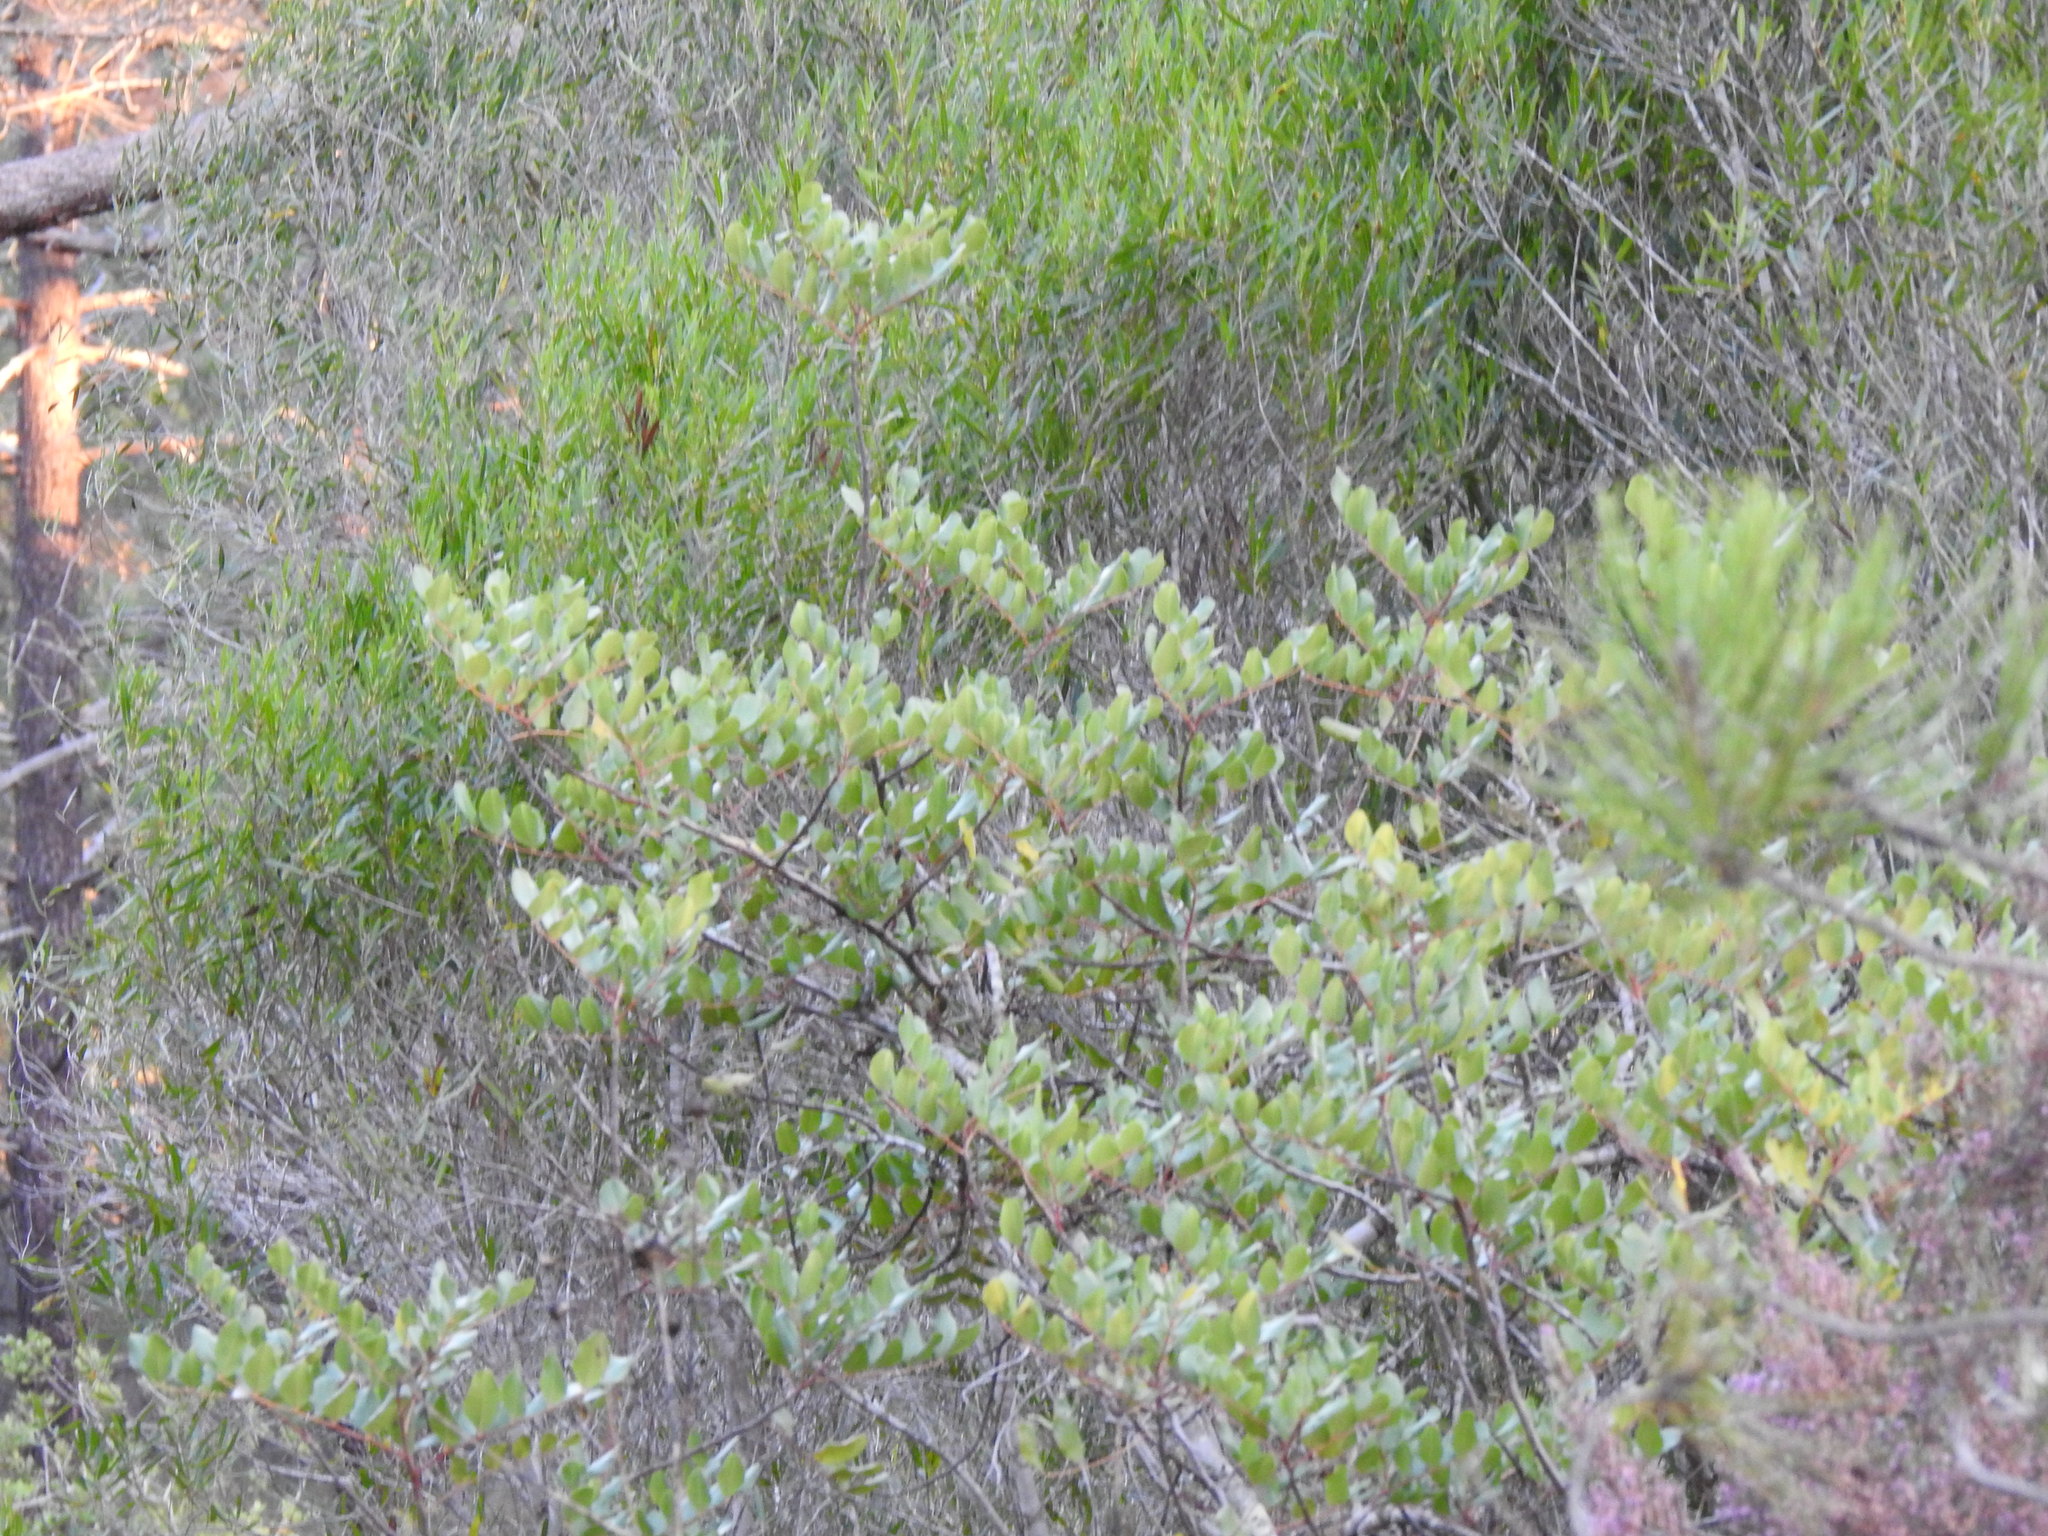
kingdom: Plantae
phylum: Tracheophyta
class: Magnoliopsida
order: Fabales
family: Fabaceae
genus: Ceratonia
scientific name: Ceratonia siliqua
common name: Carob
